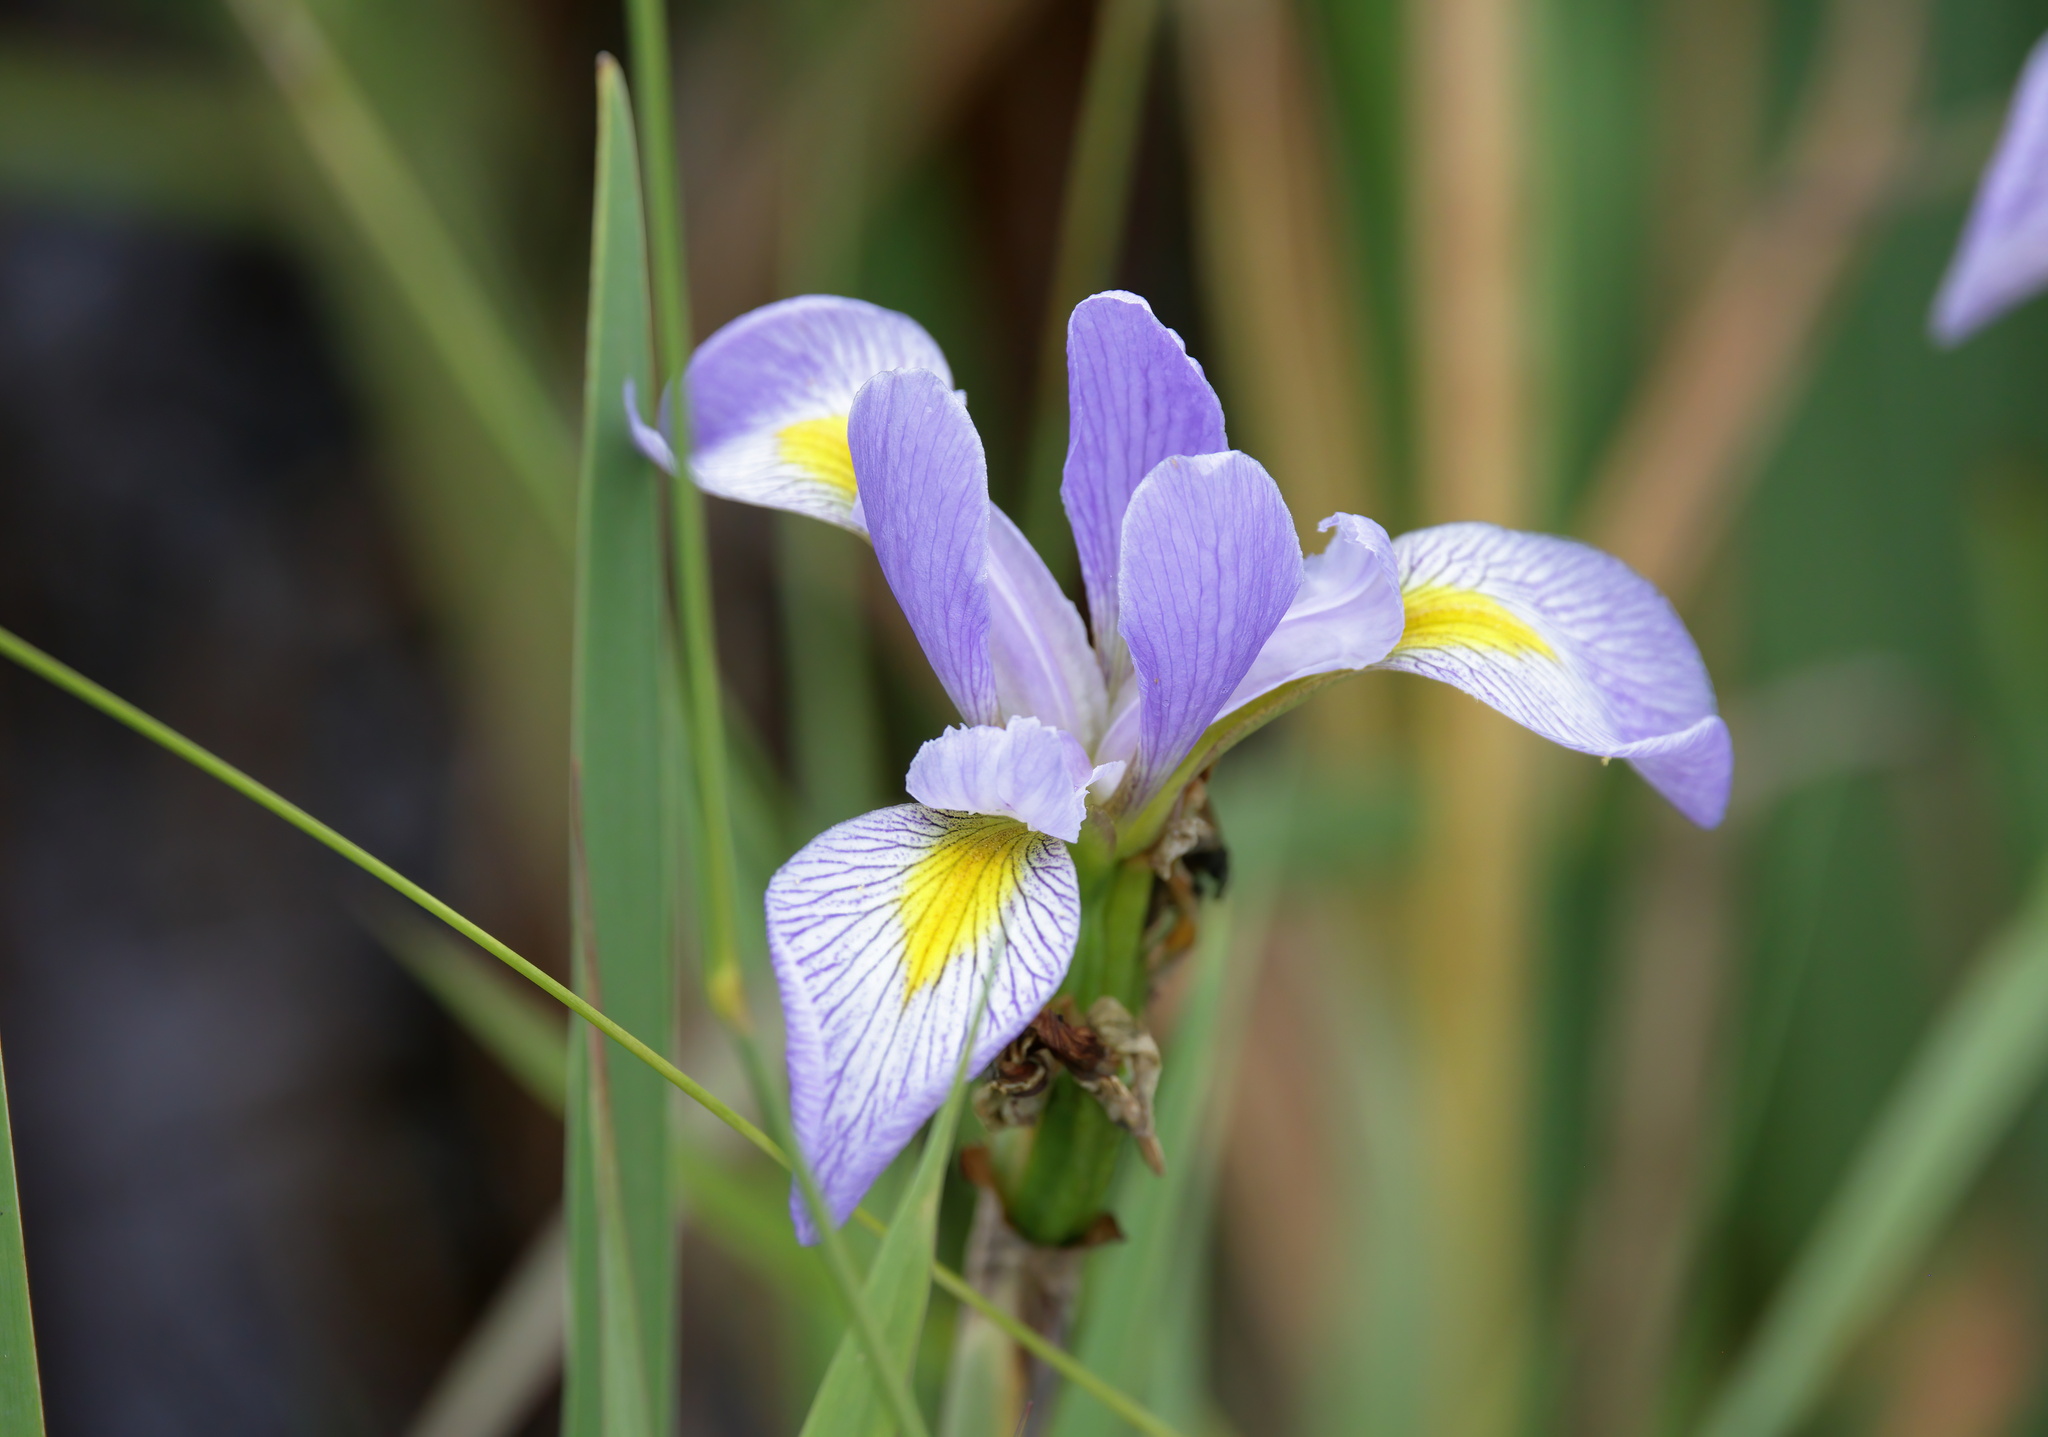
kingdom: Plantae
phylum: Tracheophyta
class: Liliopsida
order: Asparagales
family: Iridaceae
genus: Iris
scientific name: Iris virginica
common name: Southern blue flag
